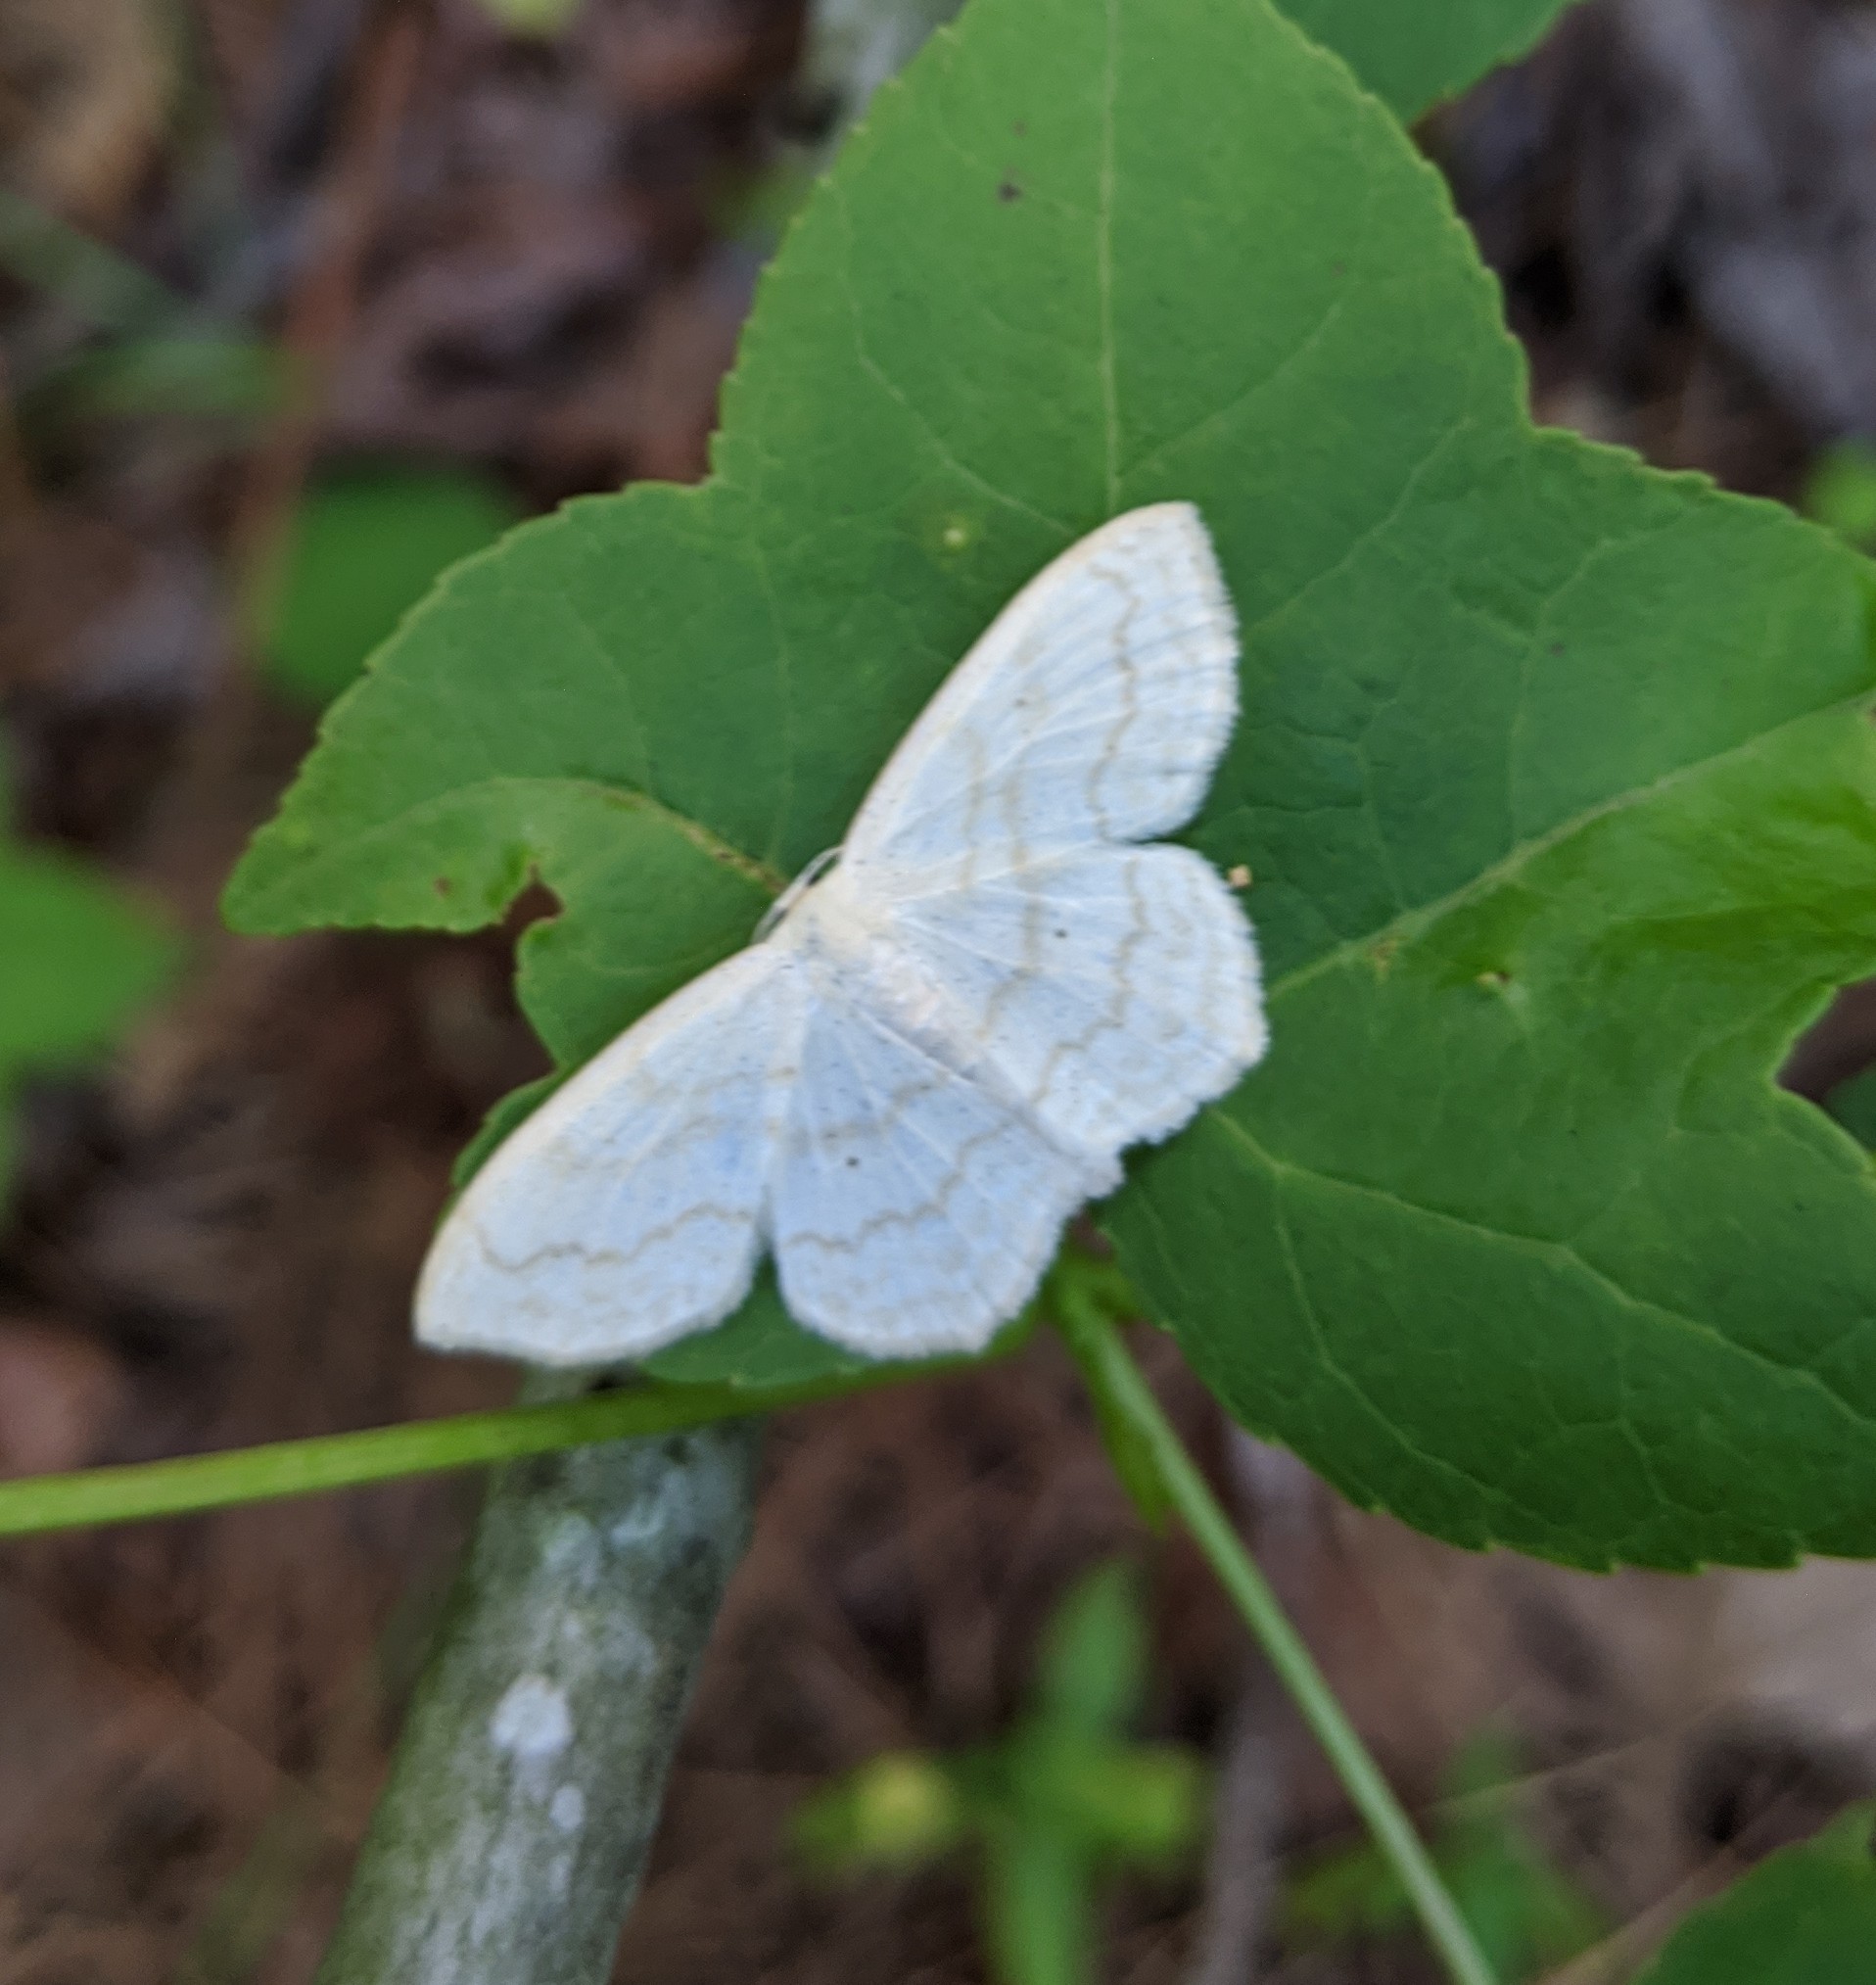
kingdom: Animalia
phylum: Arthropoda
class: Insecta
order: Lepidoptera
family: Geometridae
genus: Scopula
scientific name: Scopula limboundata
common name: Large lace border
